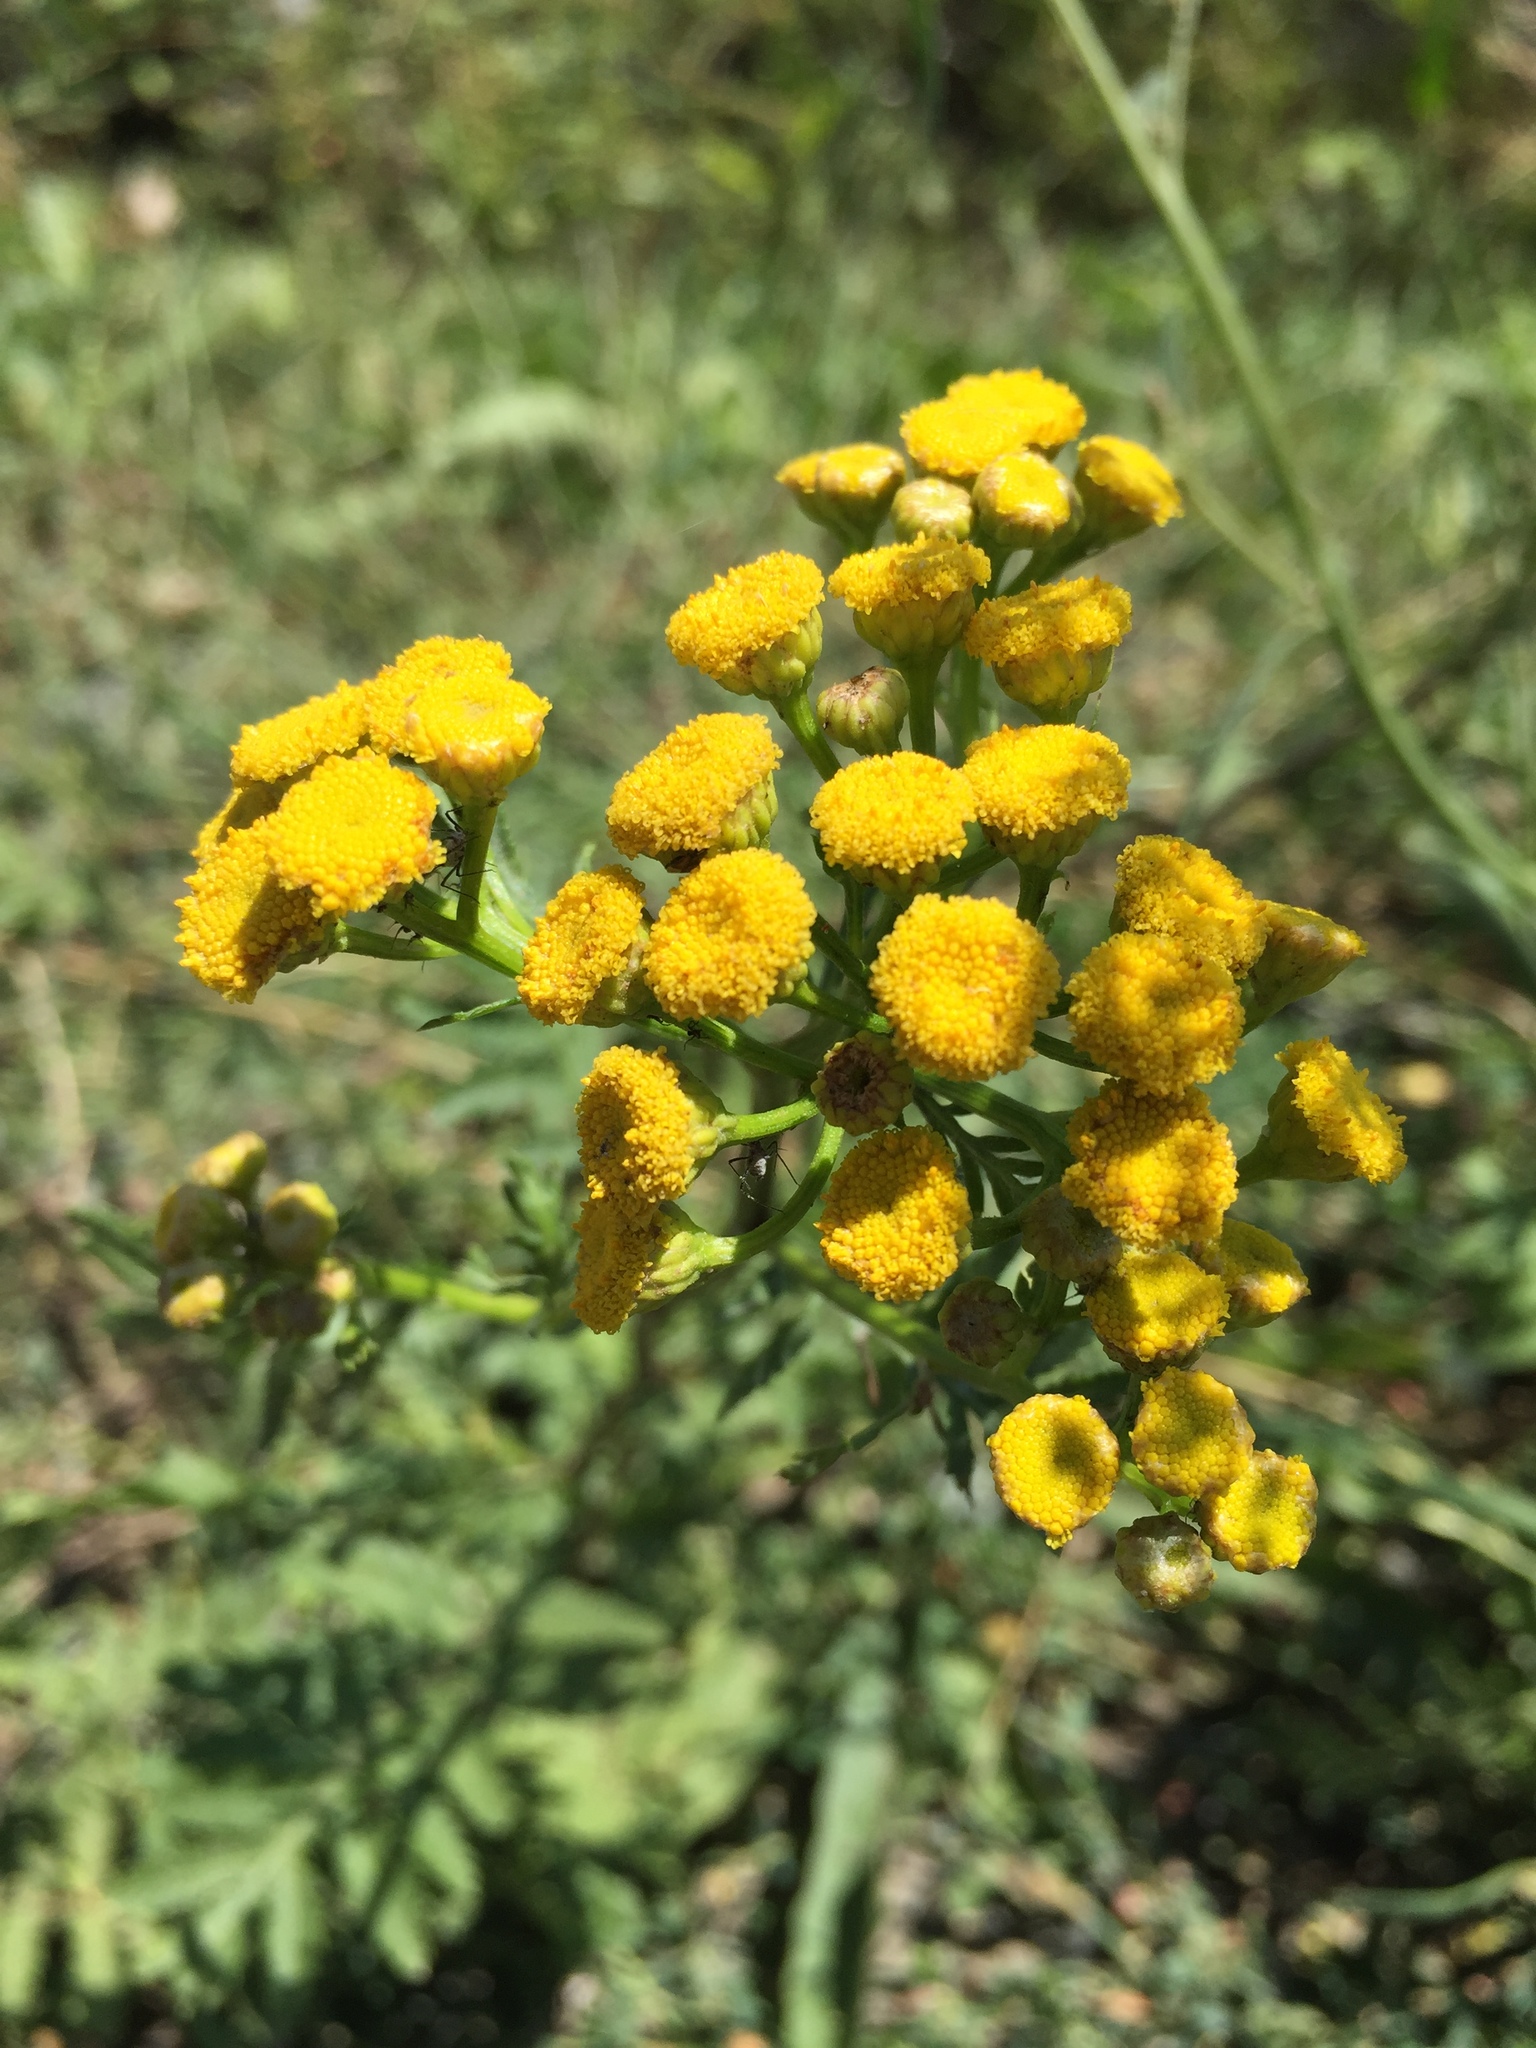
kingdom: Plantae
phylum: Tracheophyta
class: Magnoliopsida
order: Asterales
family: Asteraceae
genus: Tanacetum
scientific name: Tanacetum vulgare
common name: Common tansy
